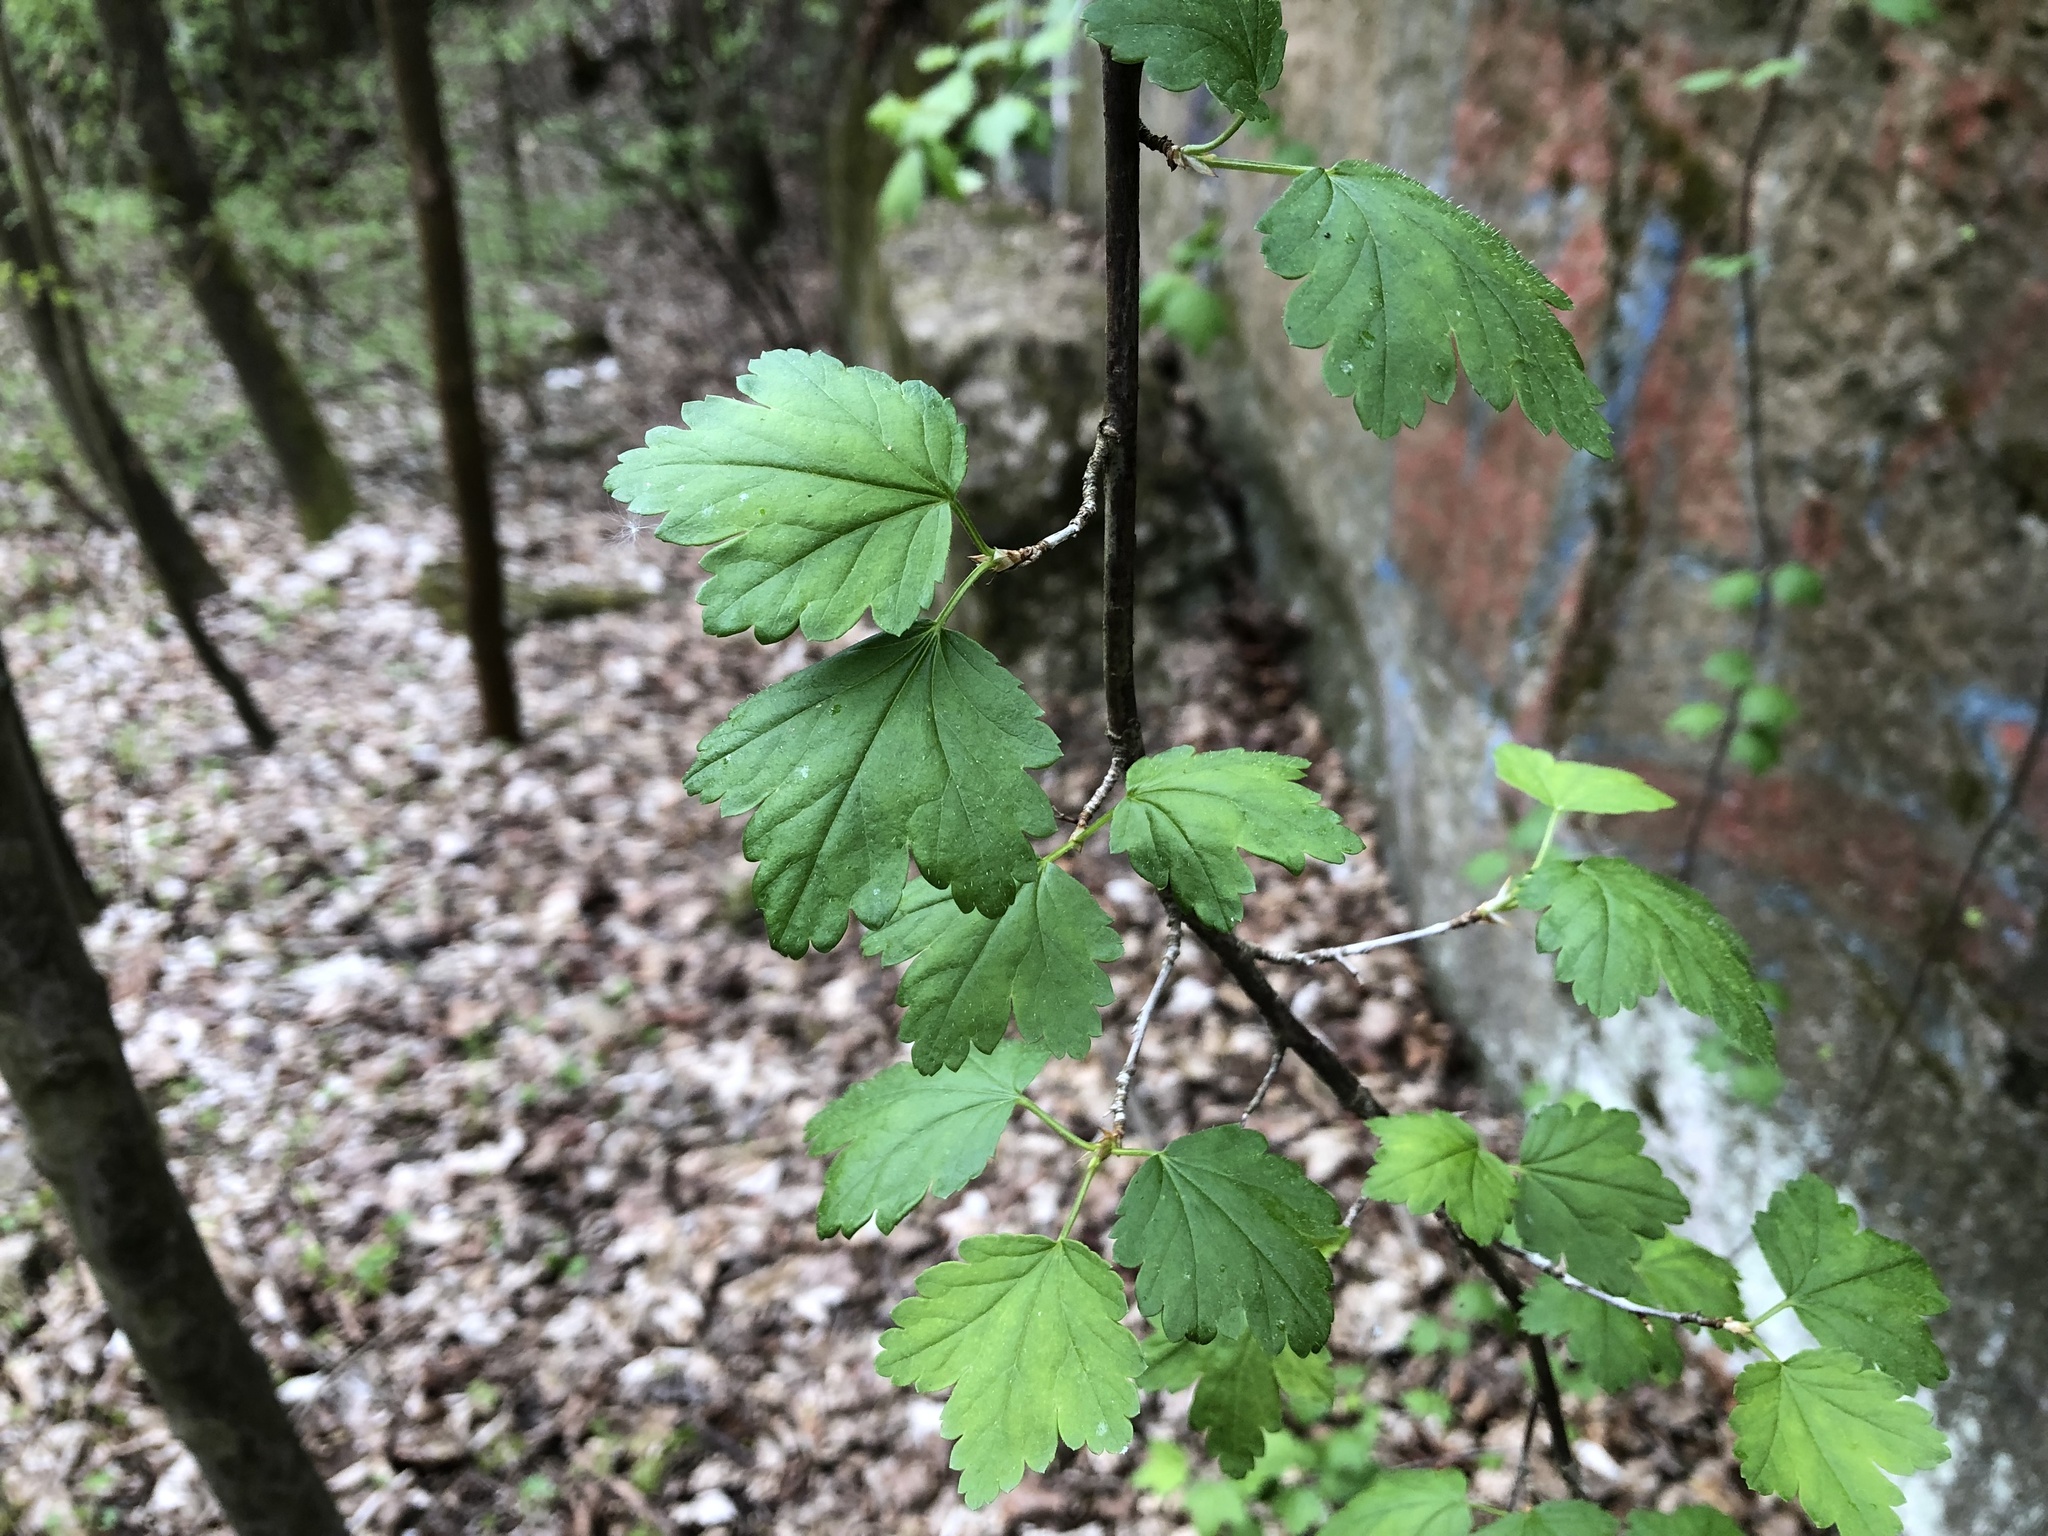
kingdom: Plantae
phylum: Tracheophyta
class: Magnoliopsida
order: Saxifragales
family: Grossulariaceae
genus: Ribes
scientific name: Ribes alpinum
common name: Alpine currant
